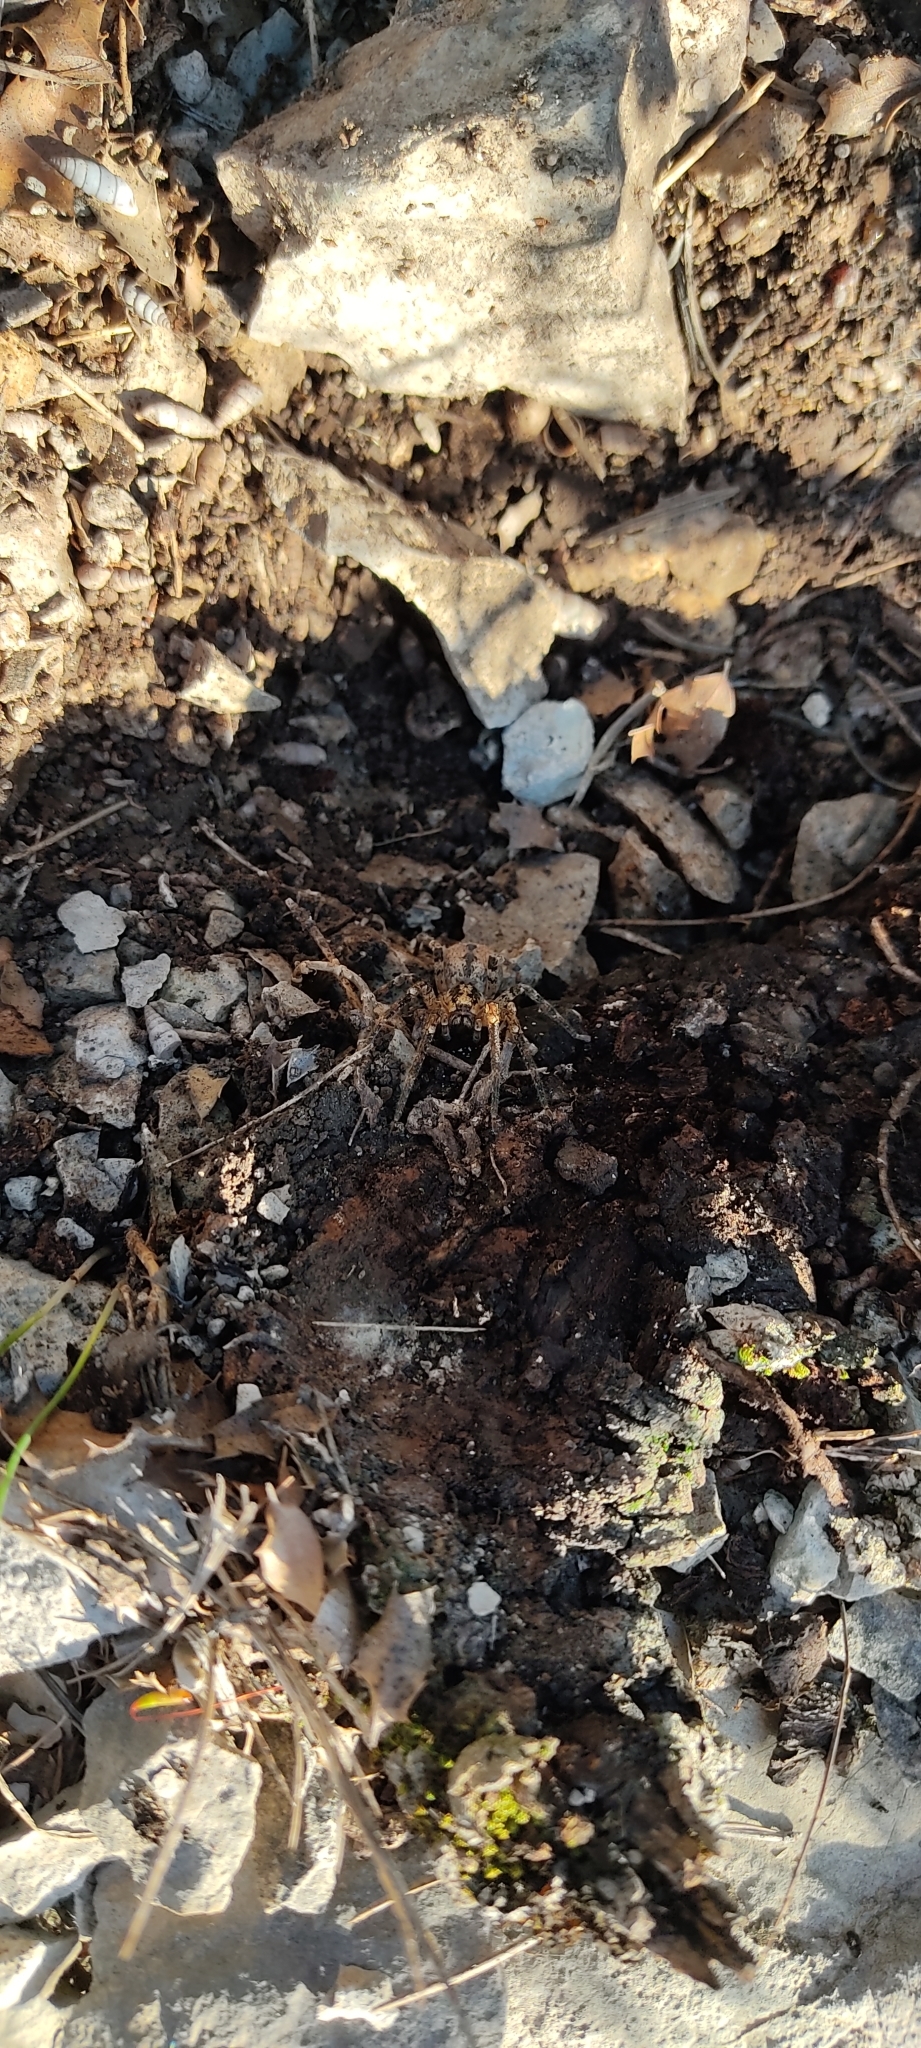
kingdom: Animalia
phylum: Arthropoda
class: Arachnida
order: Araneae
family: Zoropsidae
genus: Zoropsis
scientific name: Zoropsis spinimana
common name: Zoropsid spider
